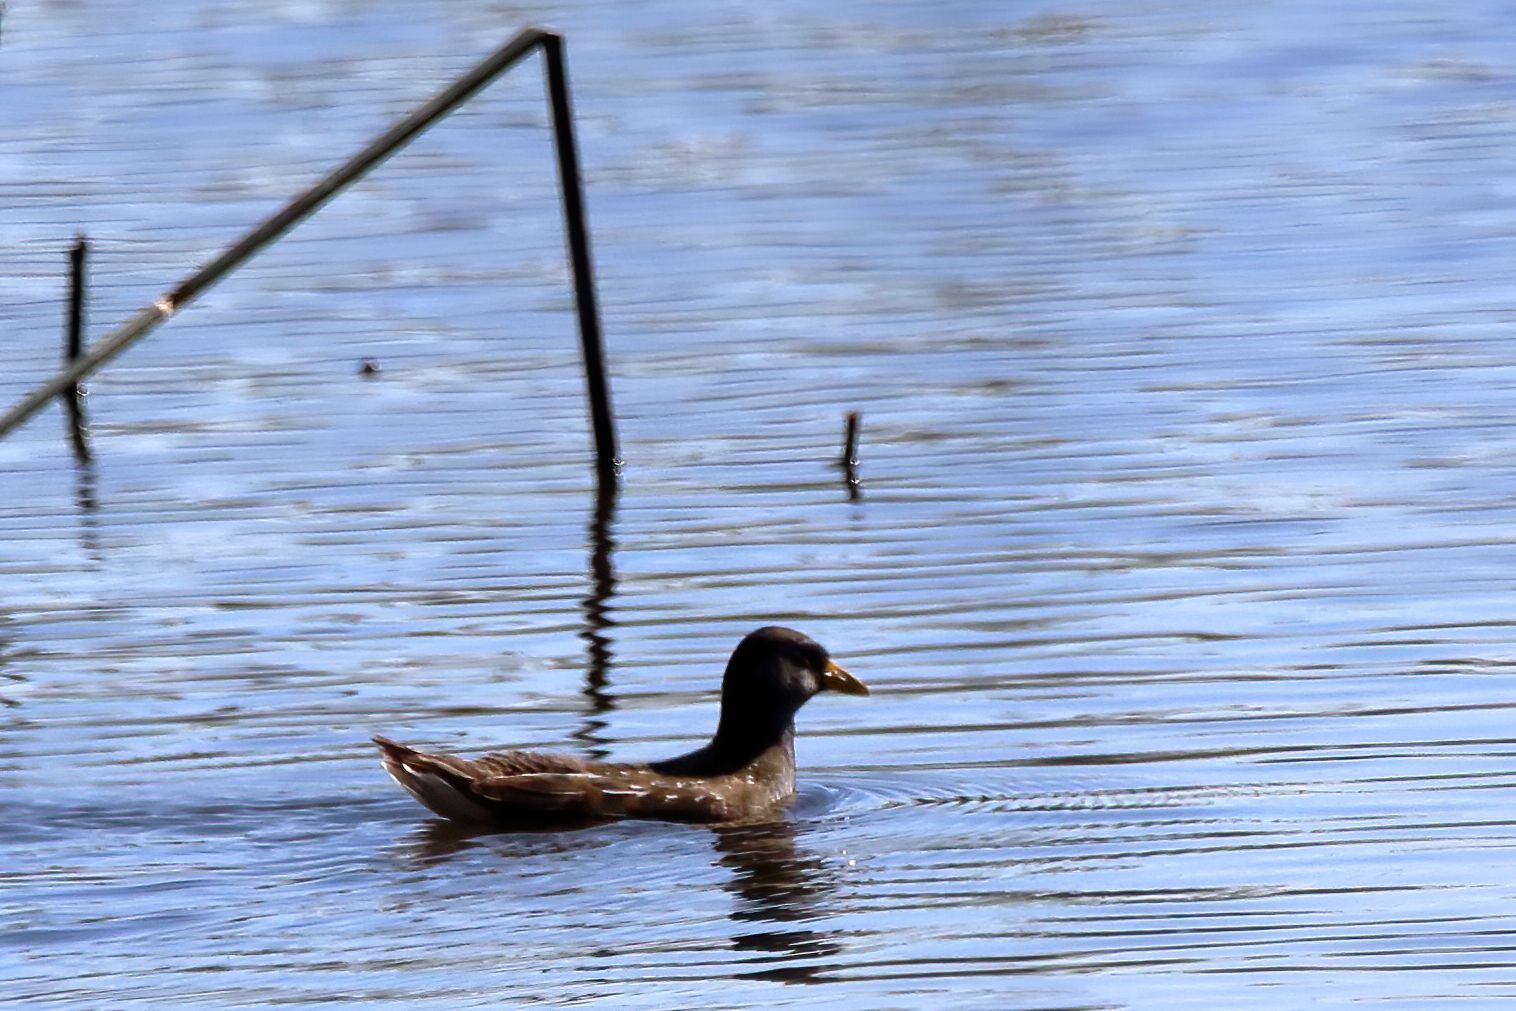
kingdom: Animalia
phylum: Chordata
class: Aves
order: Gruiformes
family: Rallidae
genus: Porzana
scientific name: Porzana carolina
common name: Sora
